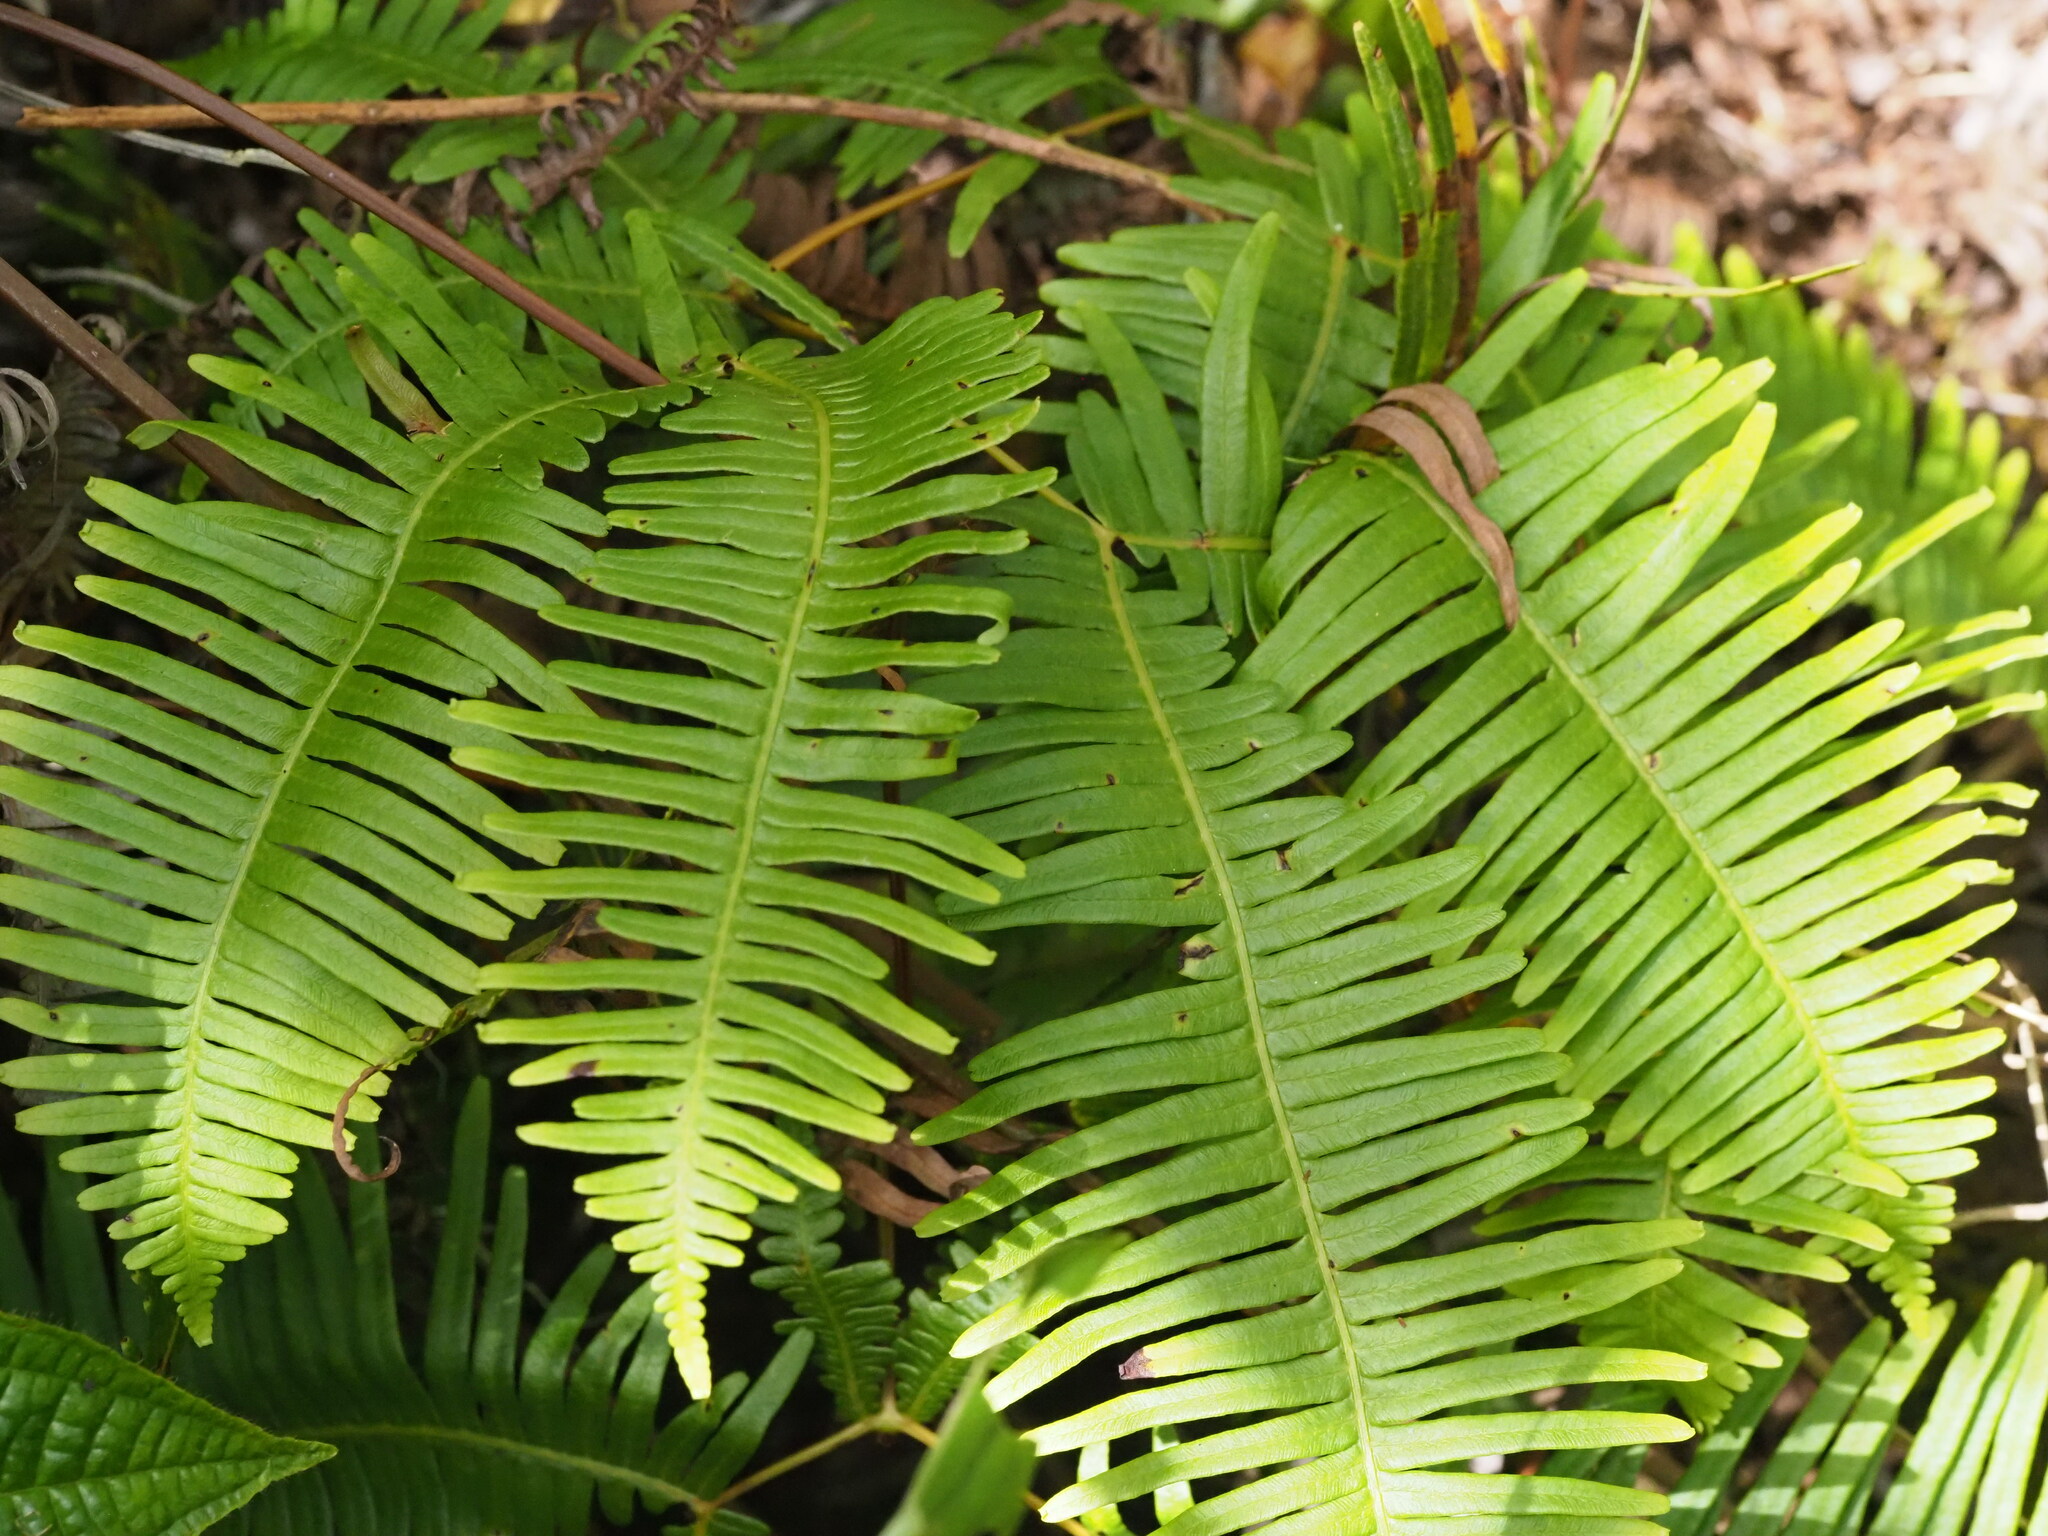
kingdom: Plantae
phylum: Tracheophyta
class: Polypodiopsida
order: Gleicheniales
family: Gleicheniaceae
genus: Dicranopteris
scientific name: Dicranopteris linearis
